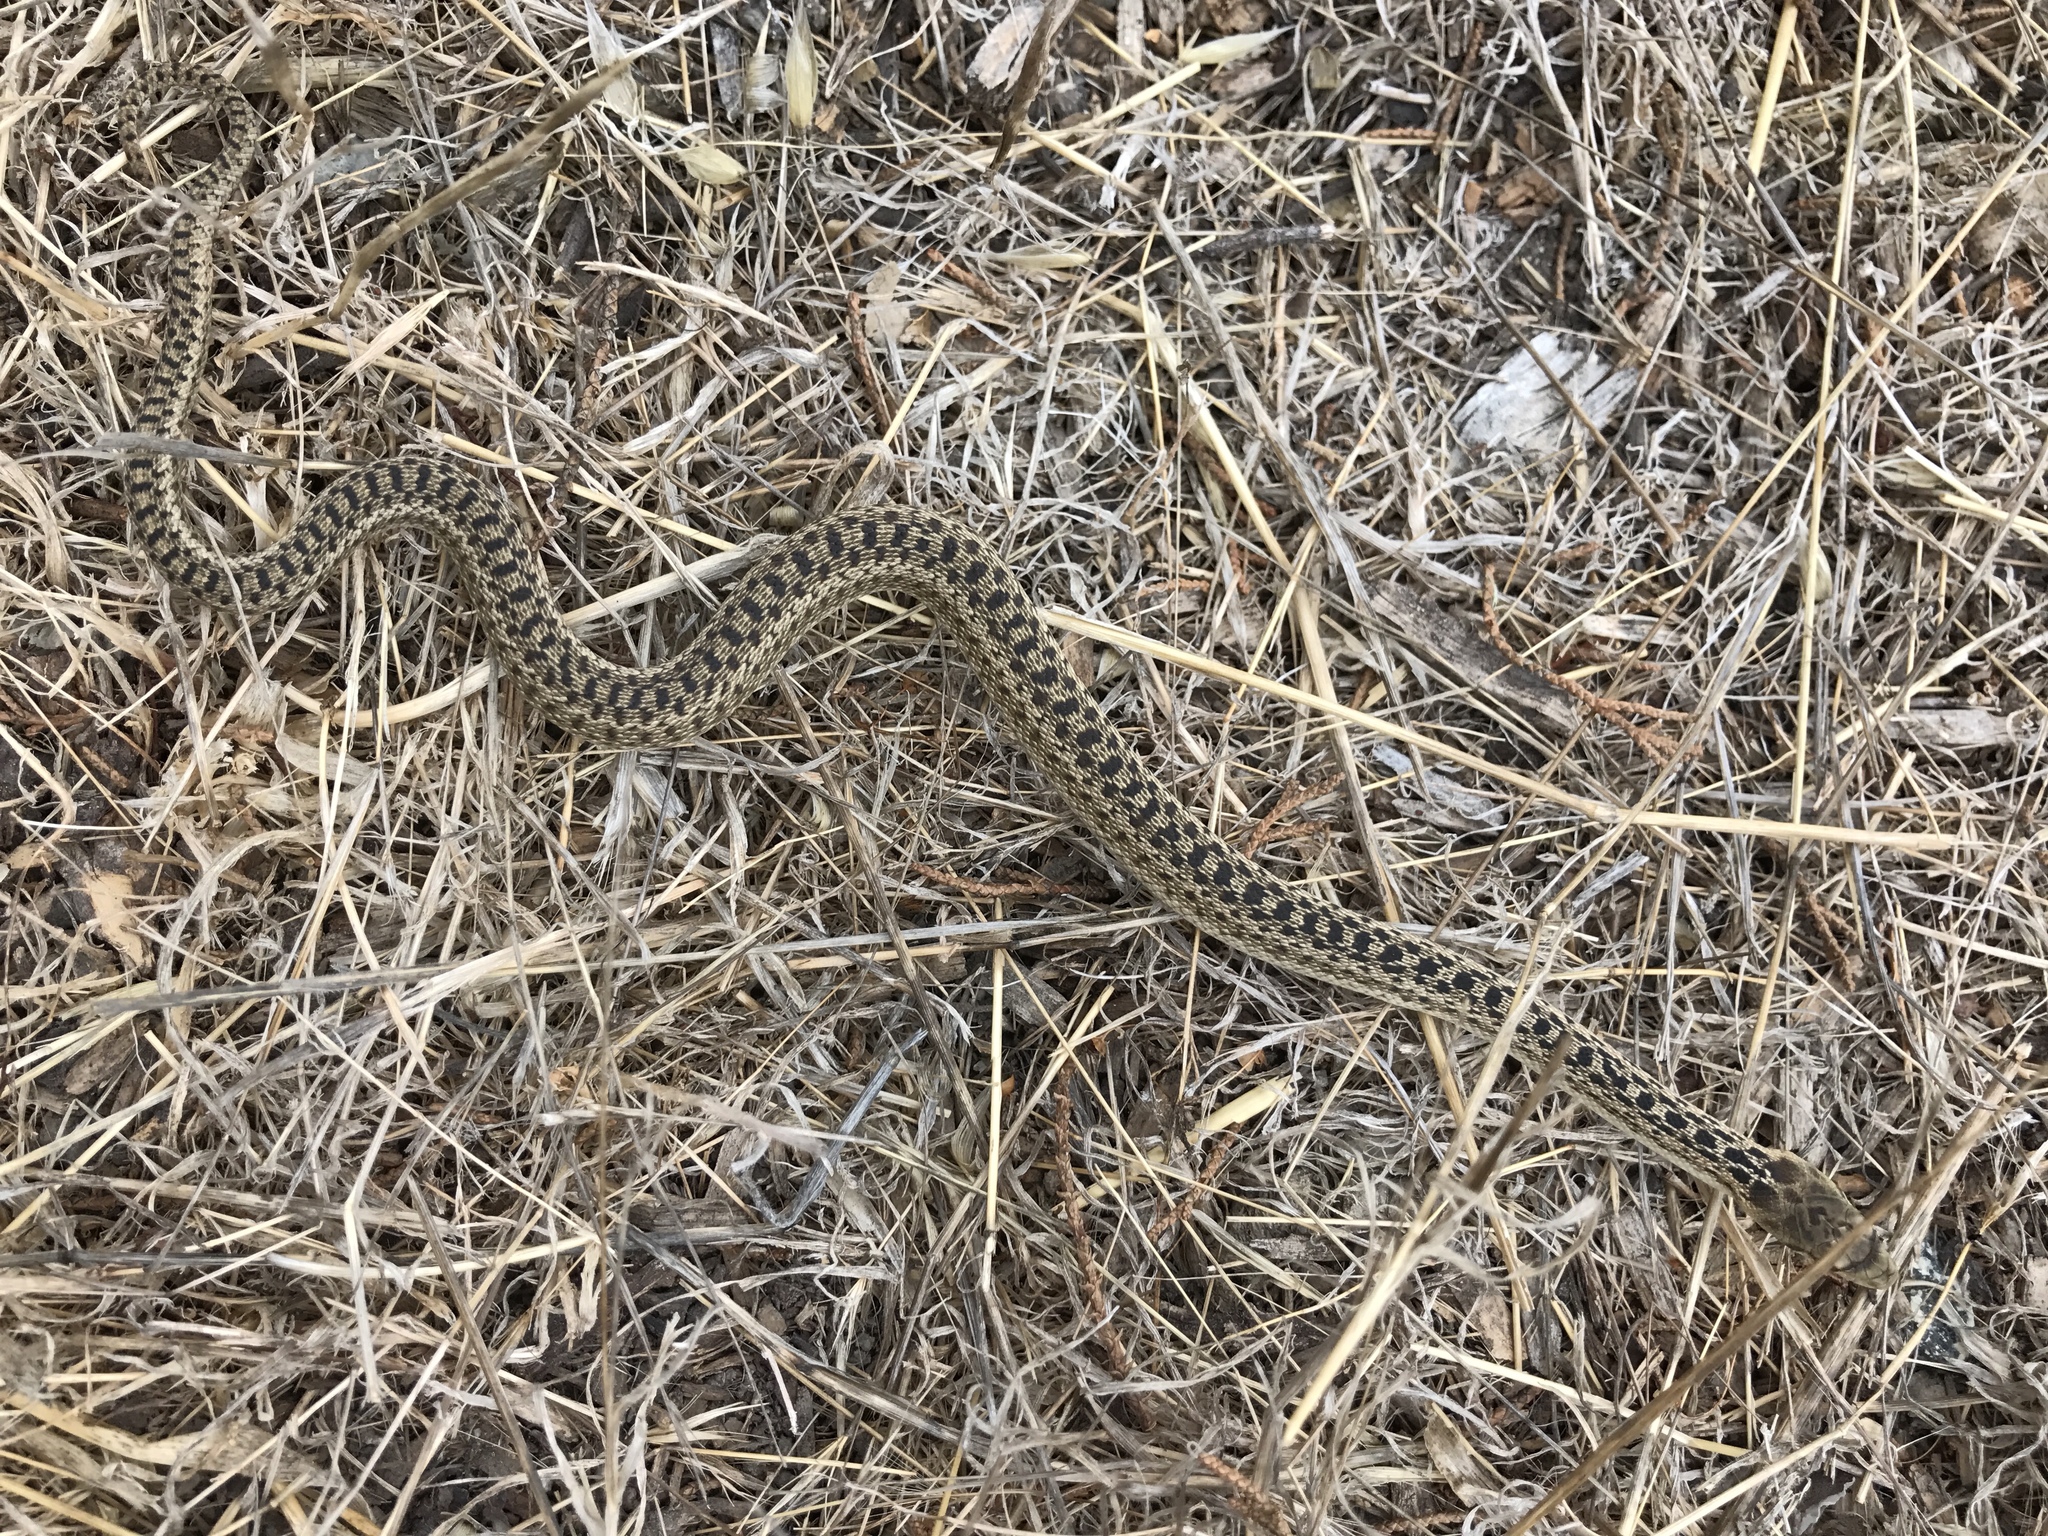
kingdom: Animalia
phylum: Chordata
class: Squamata
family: Colubridae
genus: Pituophis
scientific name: Pituophis catenifer
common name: Gopher snake
